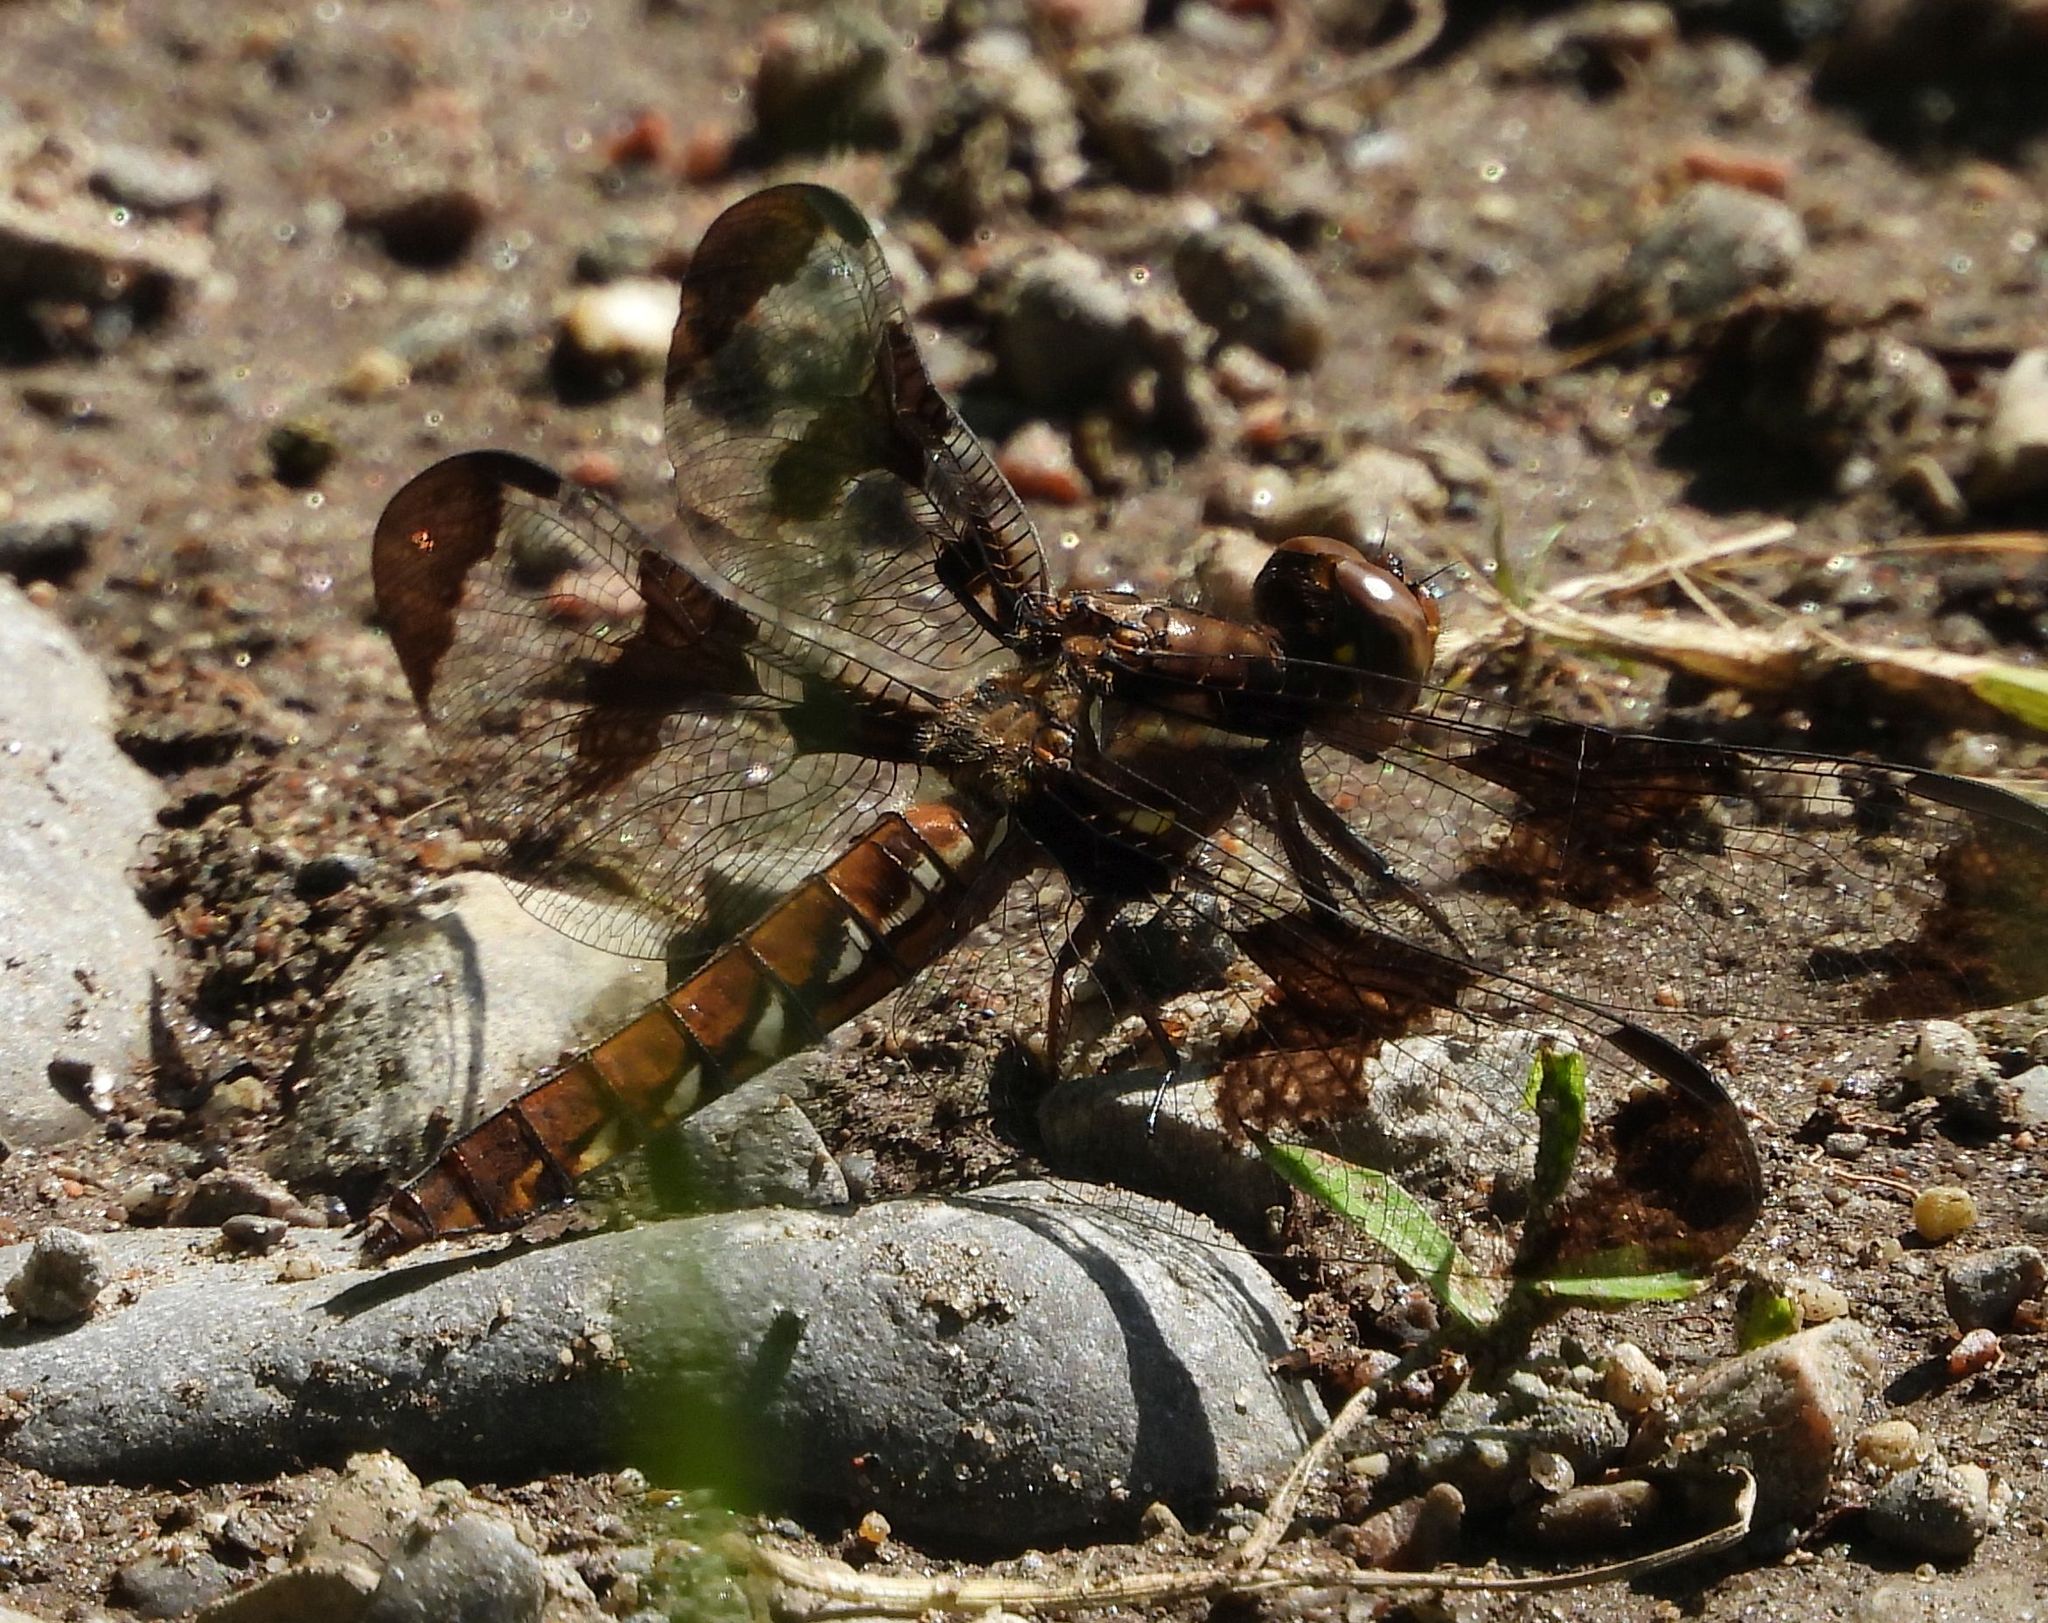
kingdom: Animalia
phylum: Arthropoda
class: Insecta
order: Odonata
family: Libellulidae
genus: Plathemis
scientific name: Plathemis lydia
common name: Common whitetail
